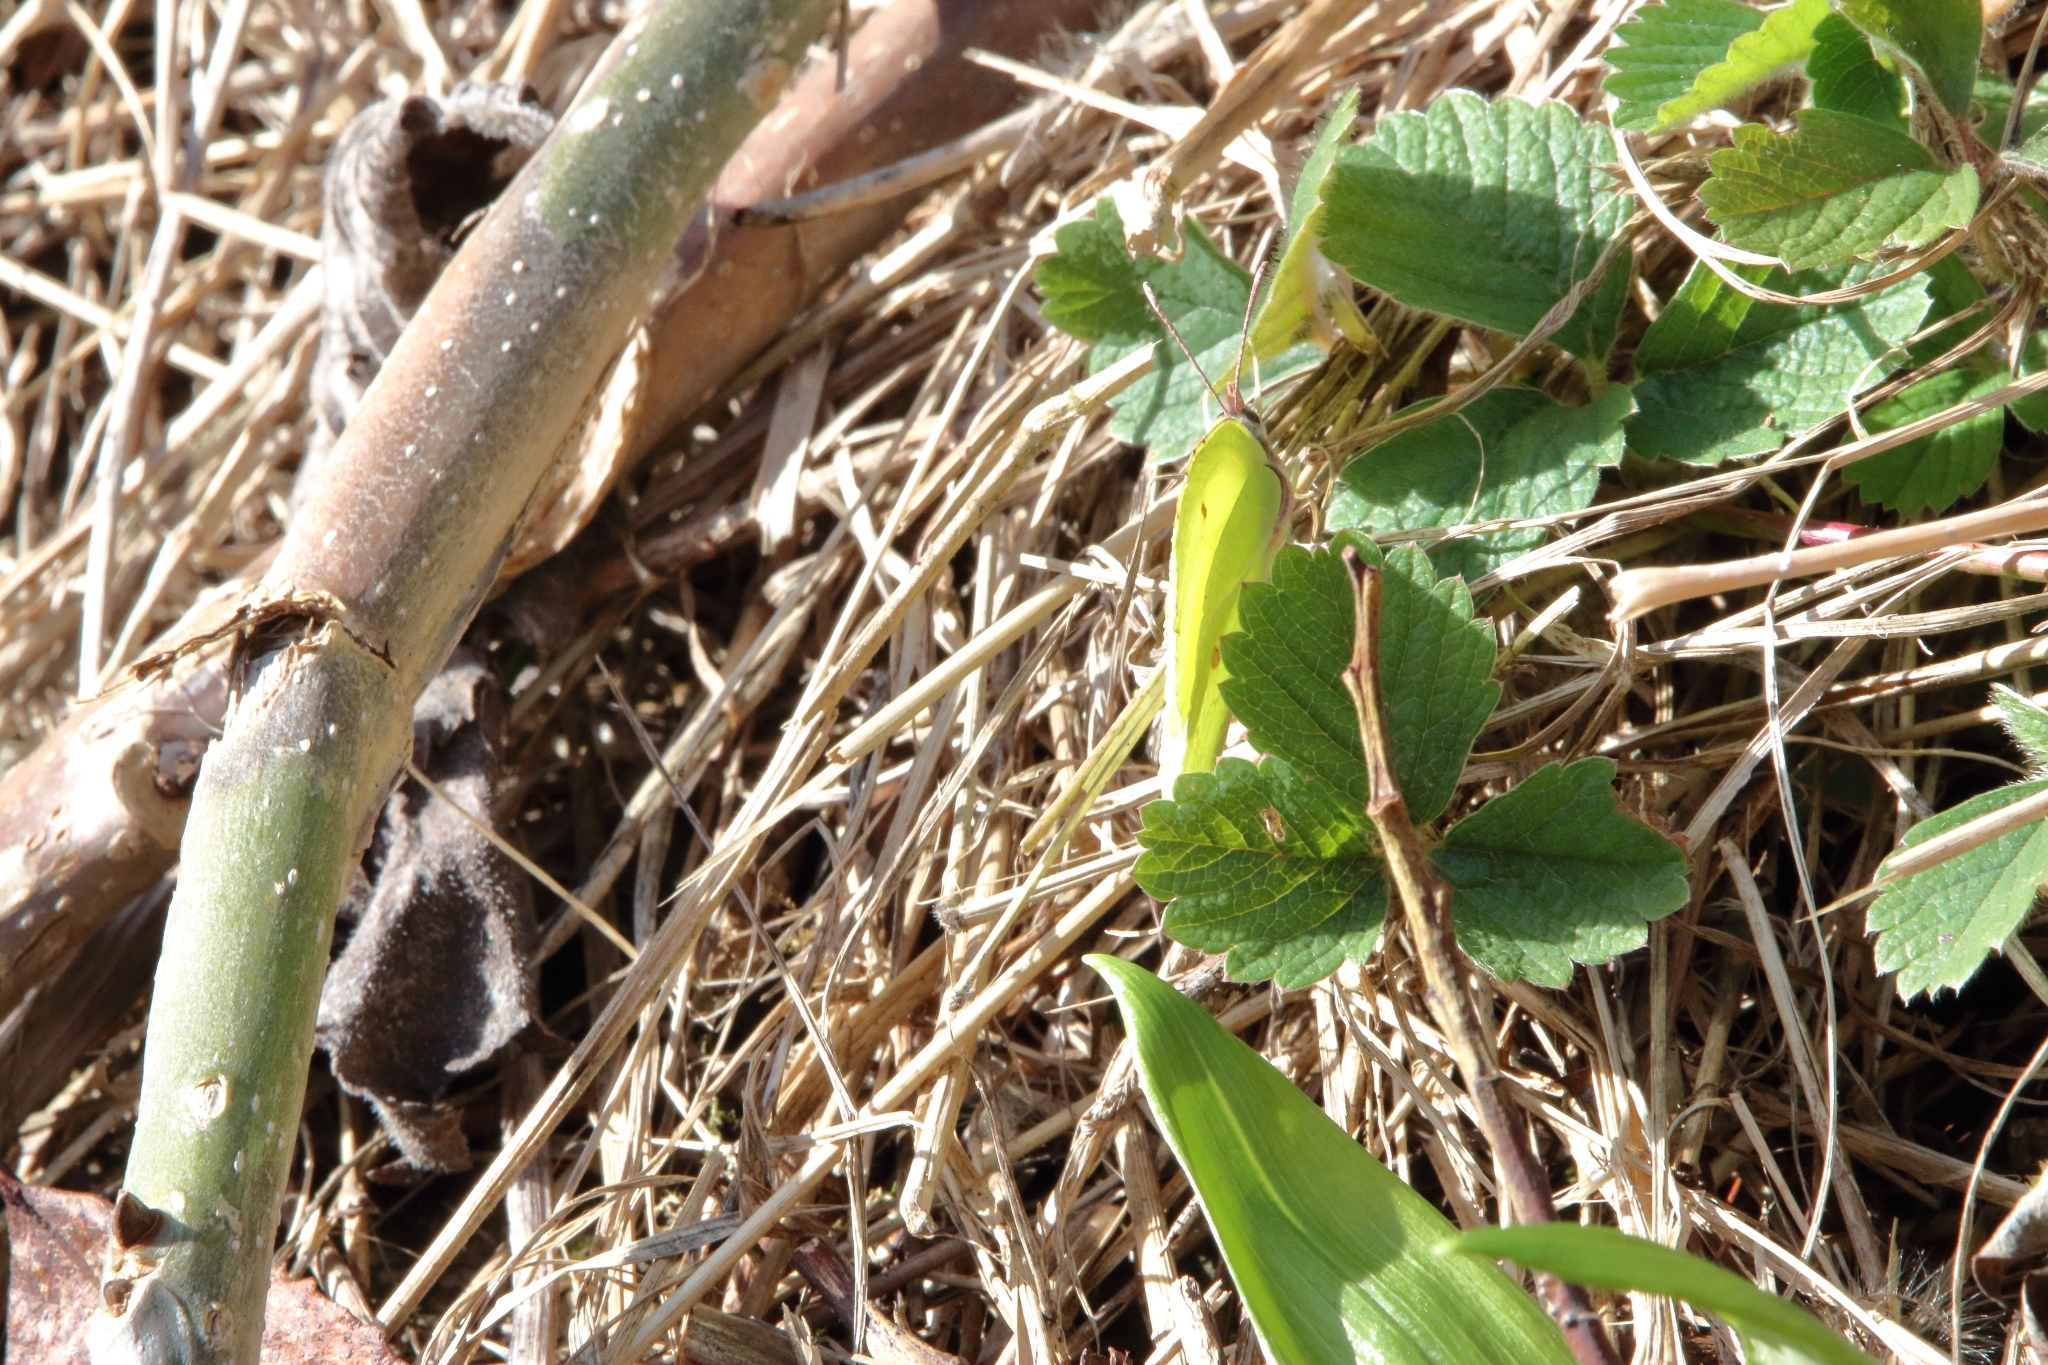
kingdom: Animalia
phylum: Arthropoda
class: Insecta
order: Lepidoptera
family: Pieridae
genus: Gonepteryx
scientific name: Gonepteryx rhamni
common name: Brimstone
